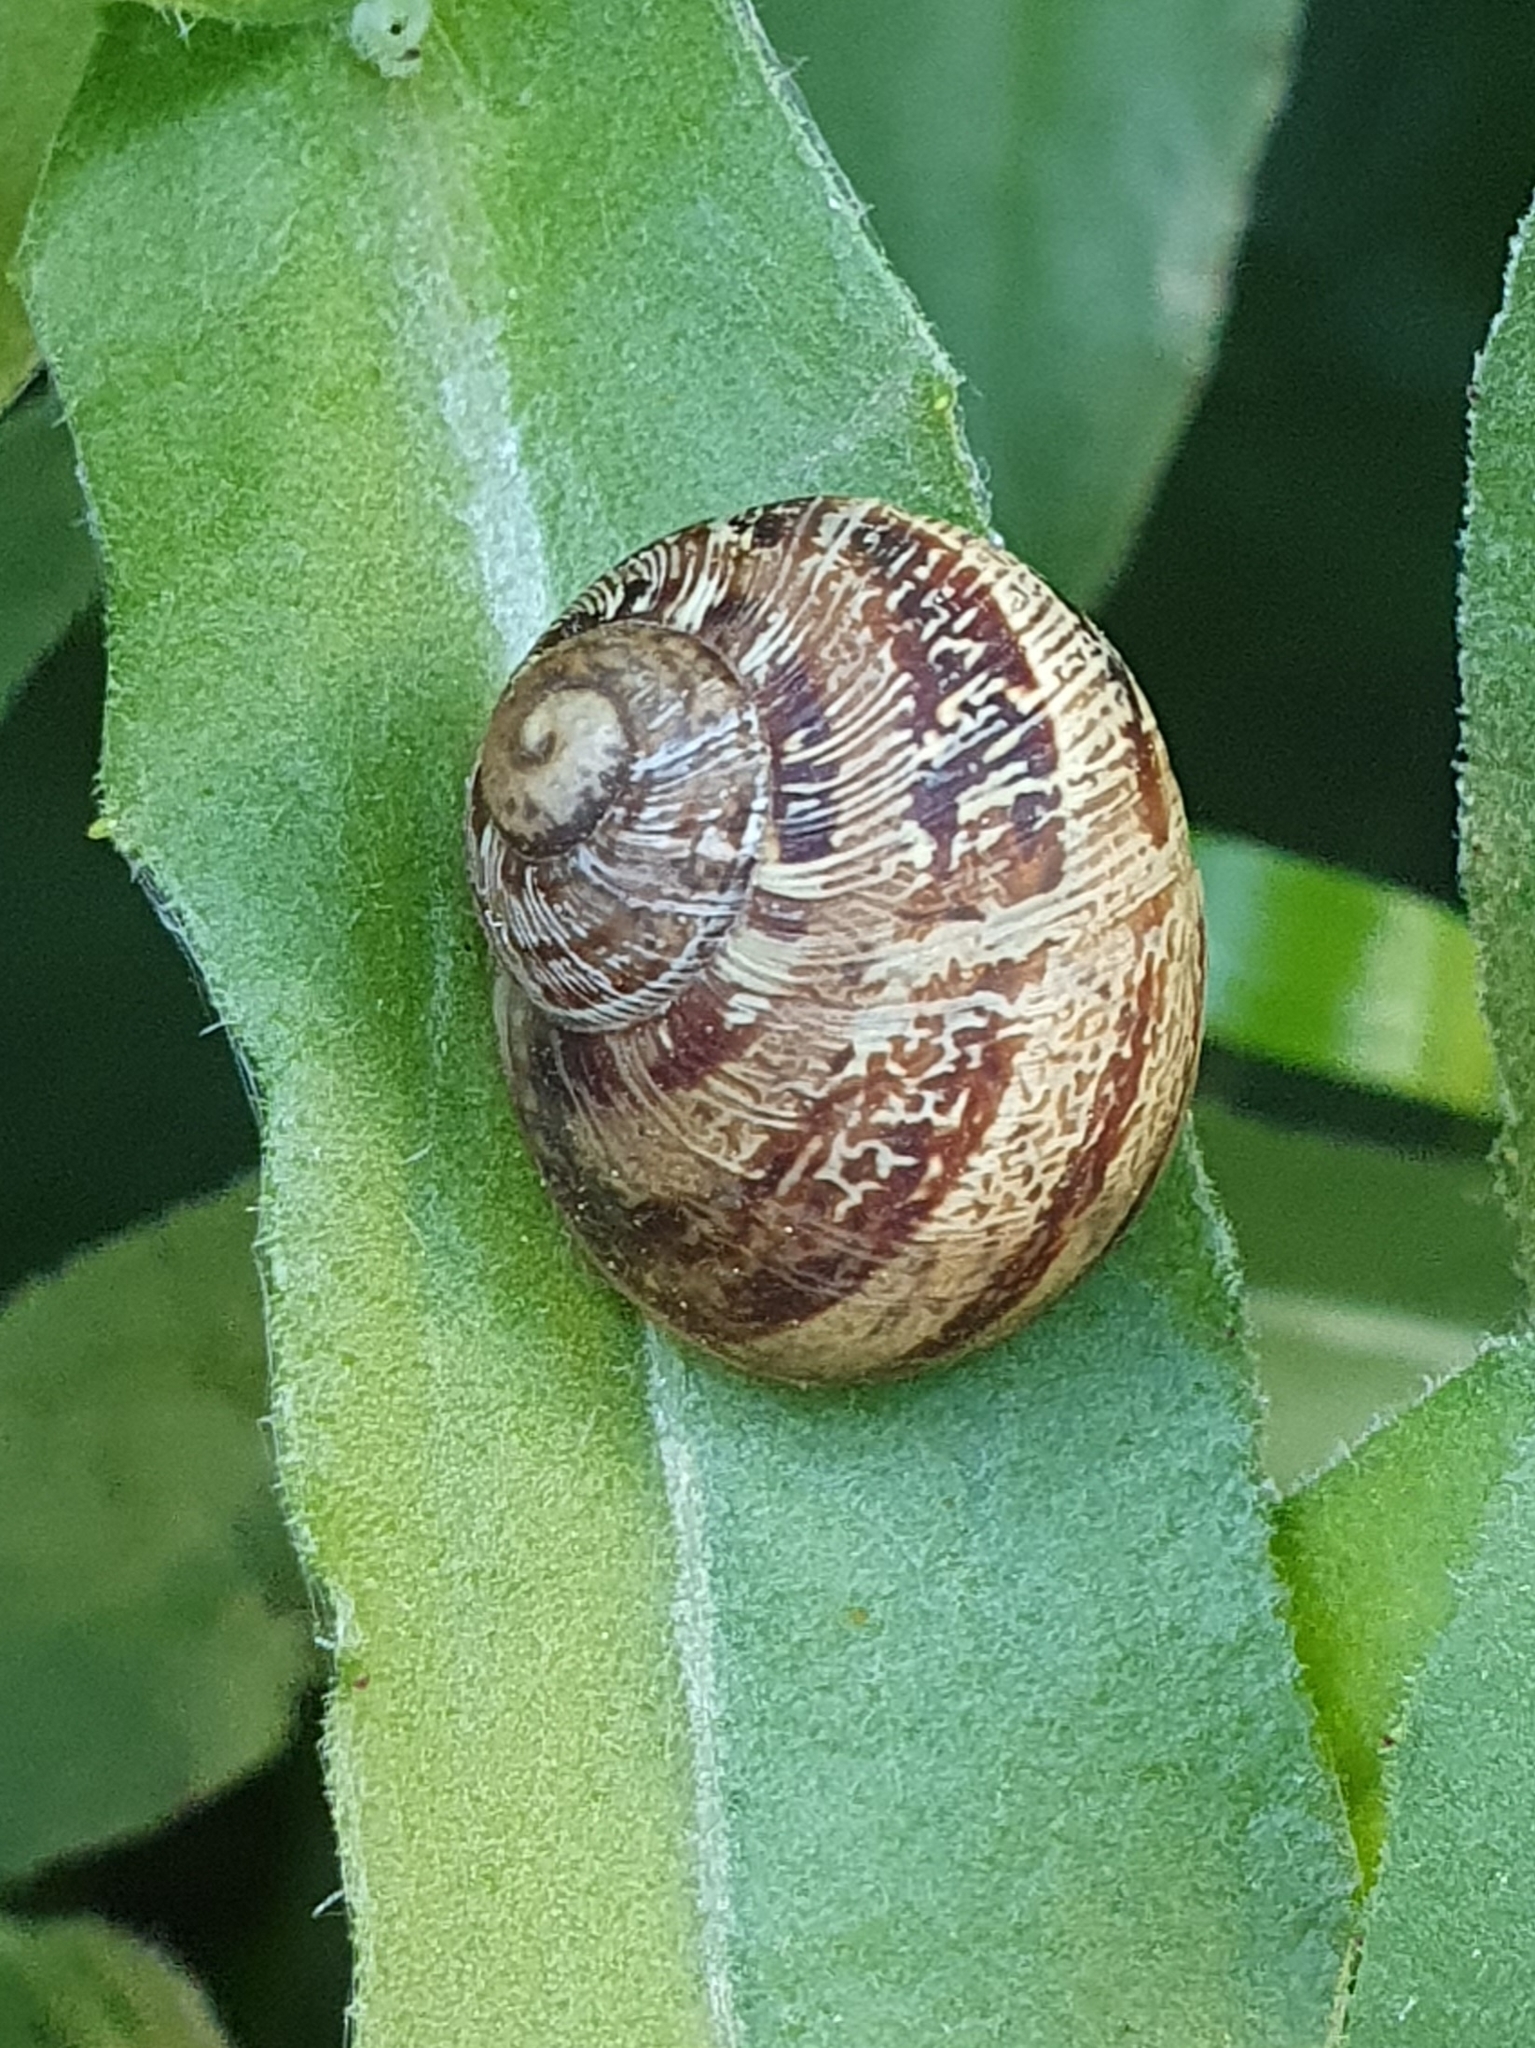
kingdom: Animalia
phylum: Mollusca
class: Gastropoda
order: Stylommatophora
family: Helicidae
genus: Cornu
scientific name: Cornu aspersum
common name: Brown garden snail
